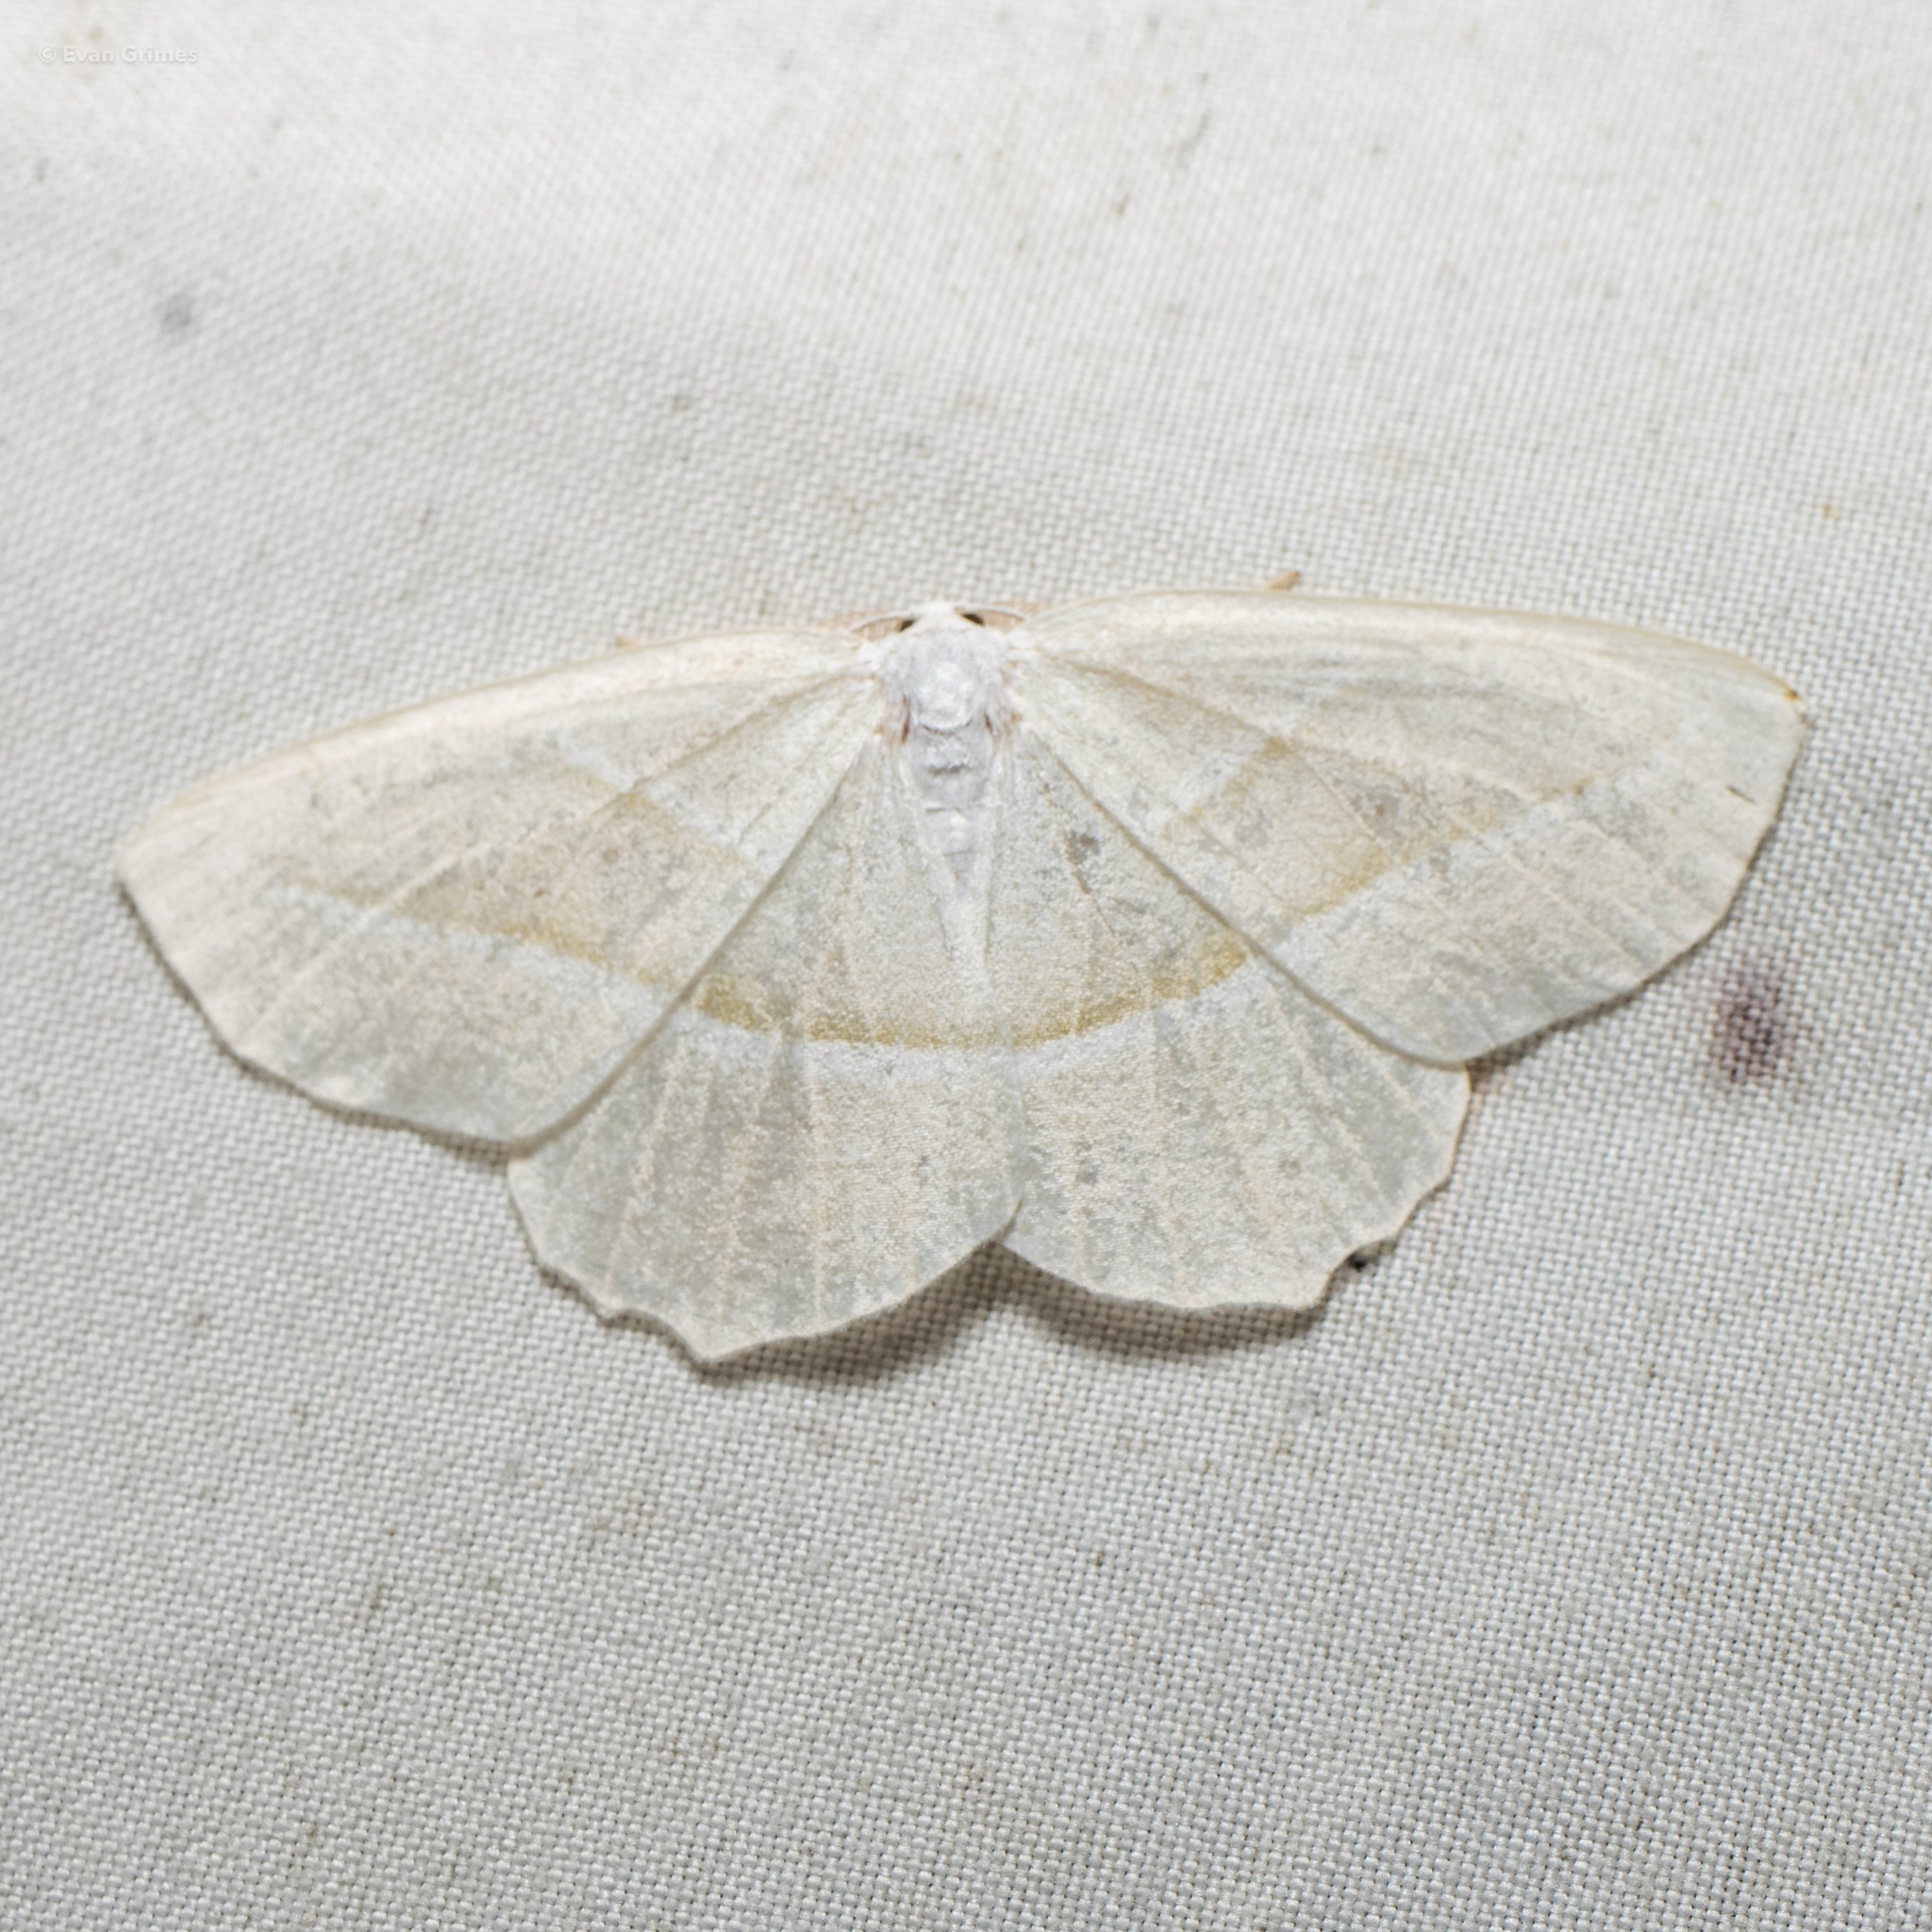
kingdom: Animalia
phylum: Arthropoda
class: Insecta
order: Lepidoptera
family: Geometridae
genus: Campaea
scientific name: Campaea perlata
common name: Fringed looper
